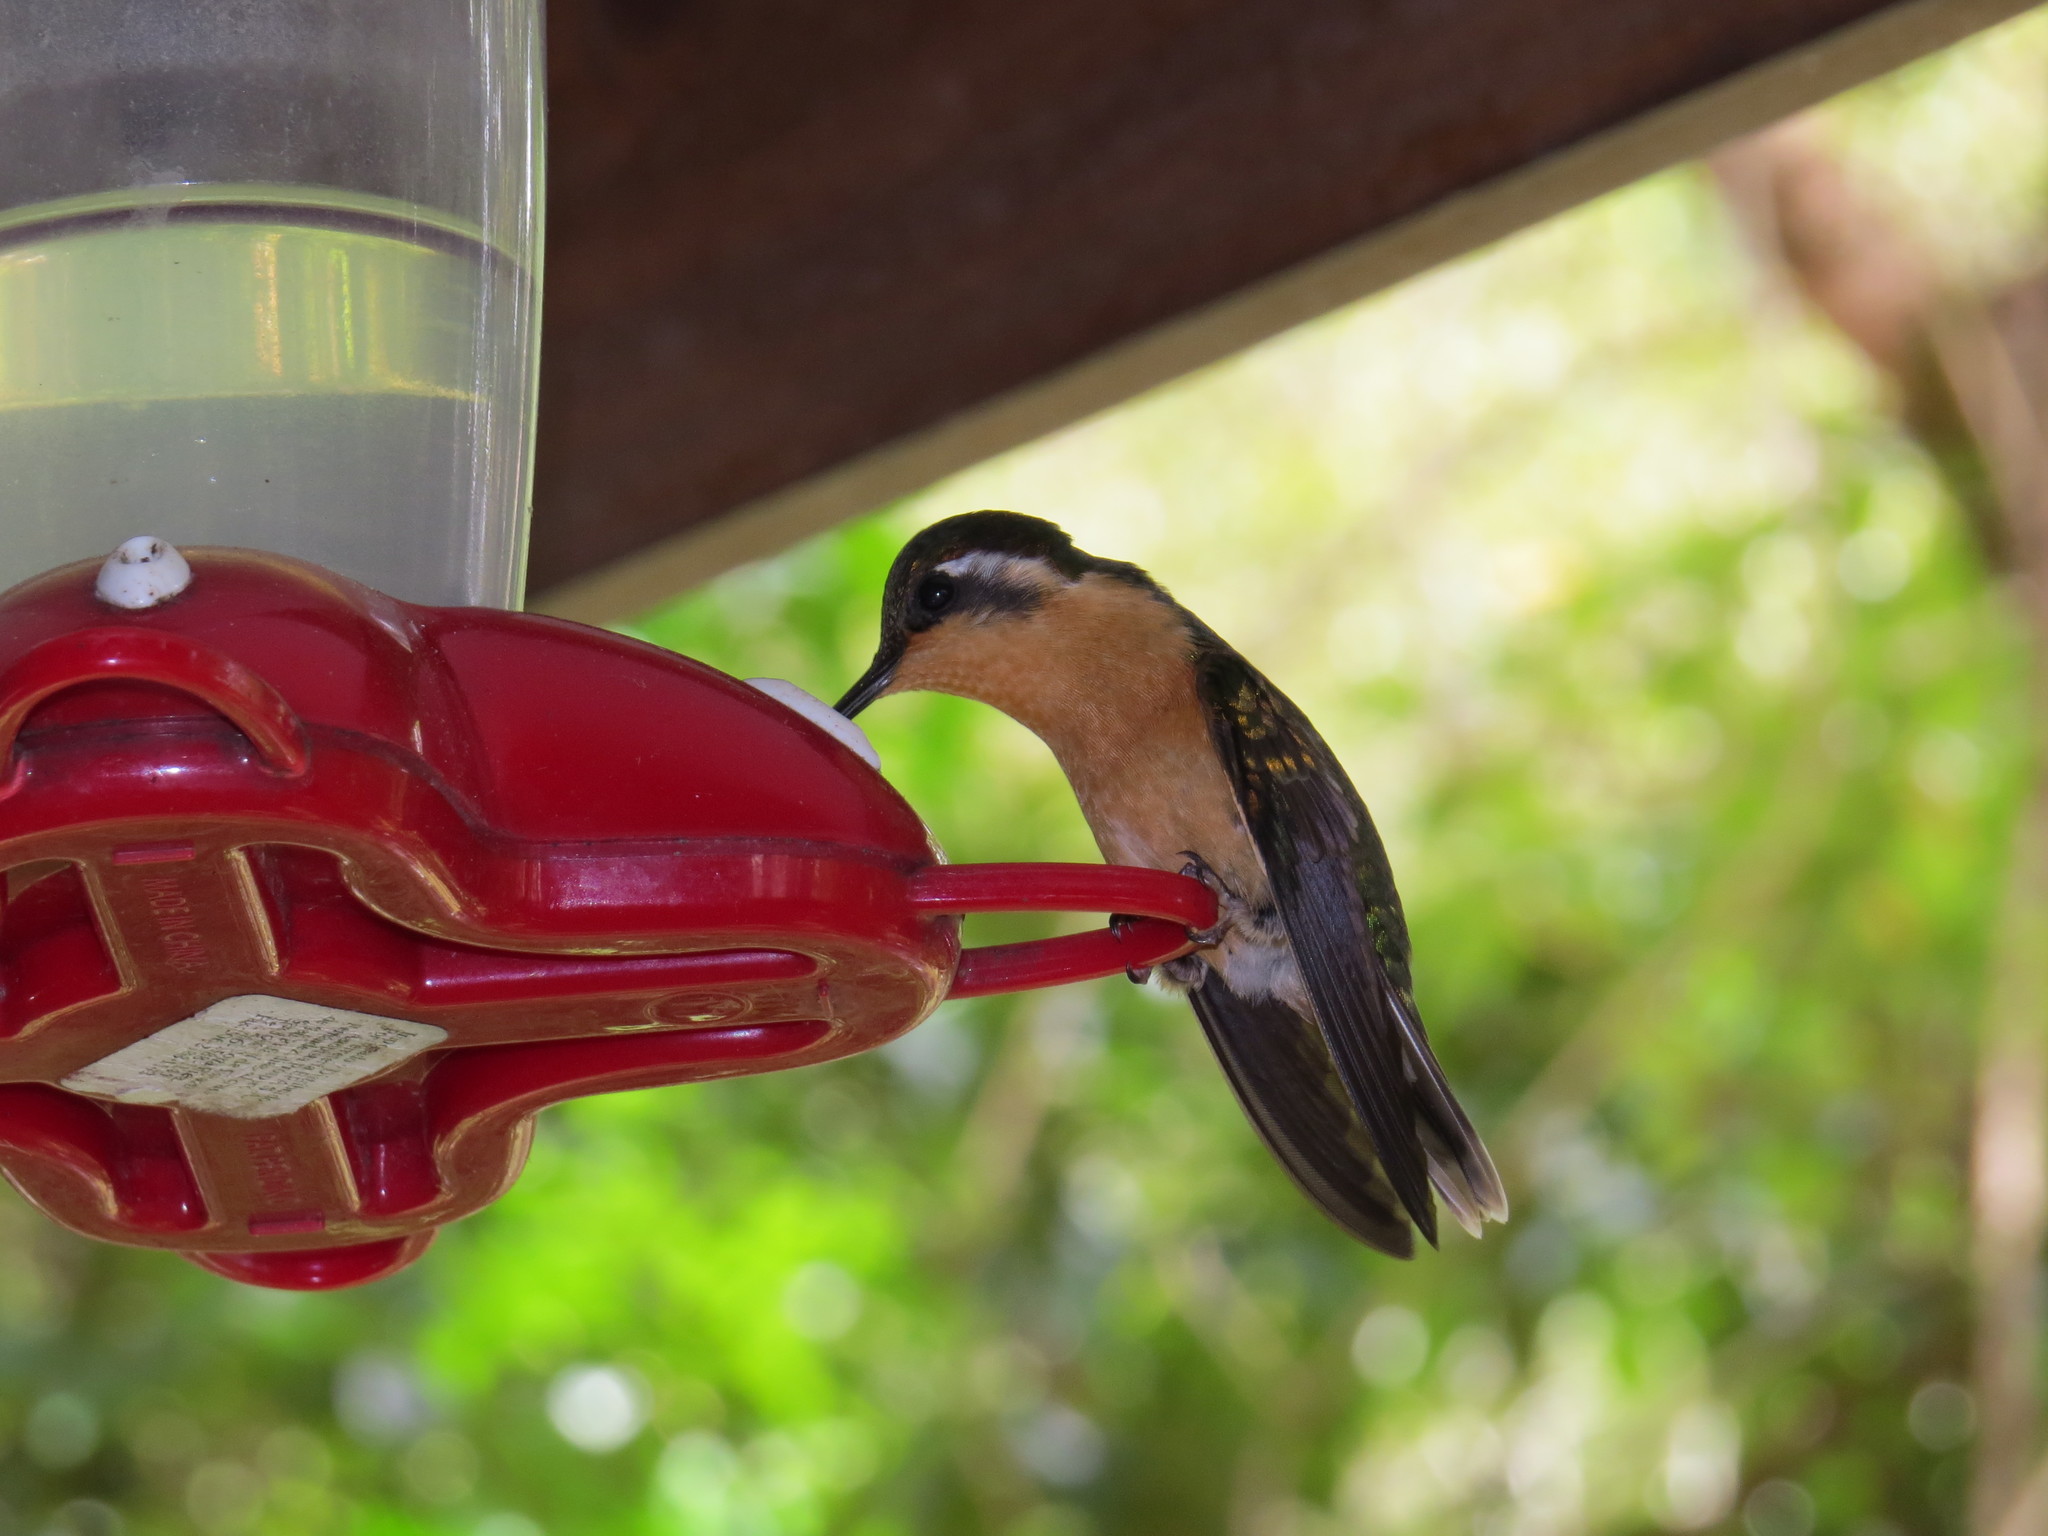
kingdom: Animalia
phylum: Chordata
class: Aves
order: Apodiformes
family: Trochilidae
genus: Lampornis
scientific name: Lampornis cinereicauda
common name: Grey-tailed mountaingem
